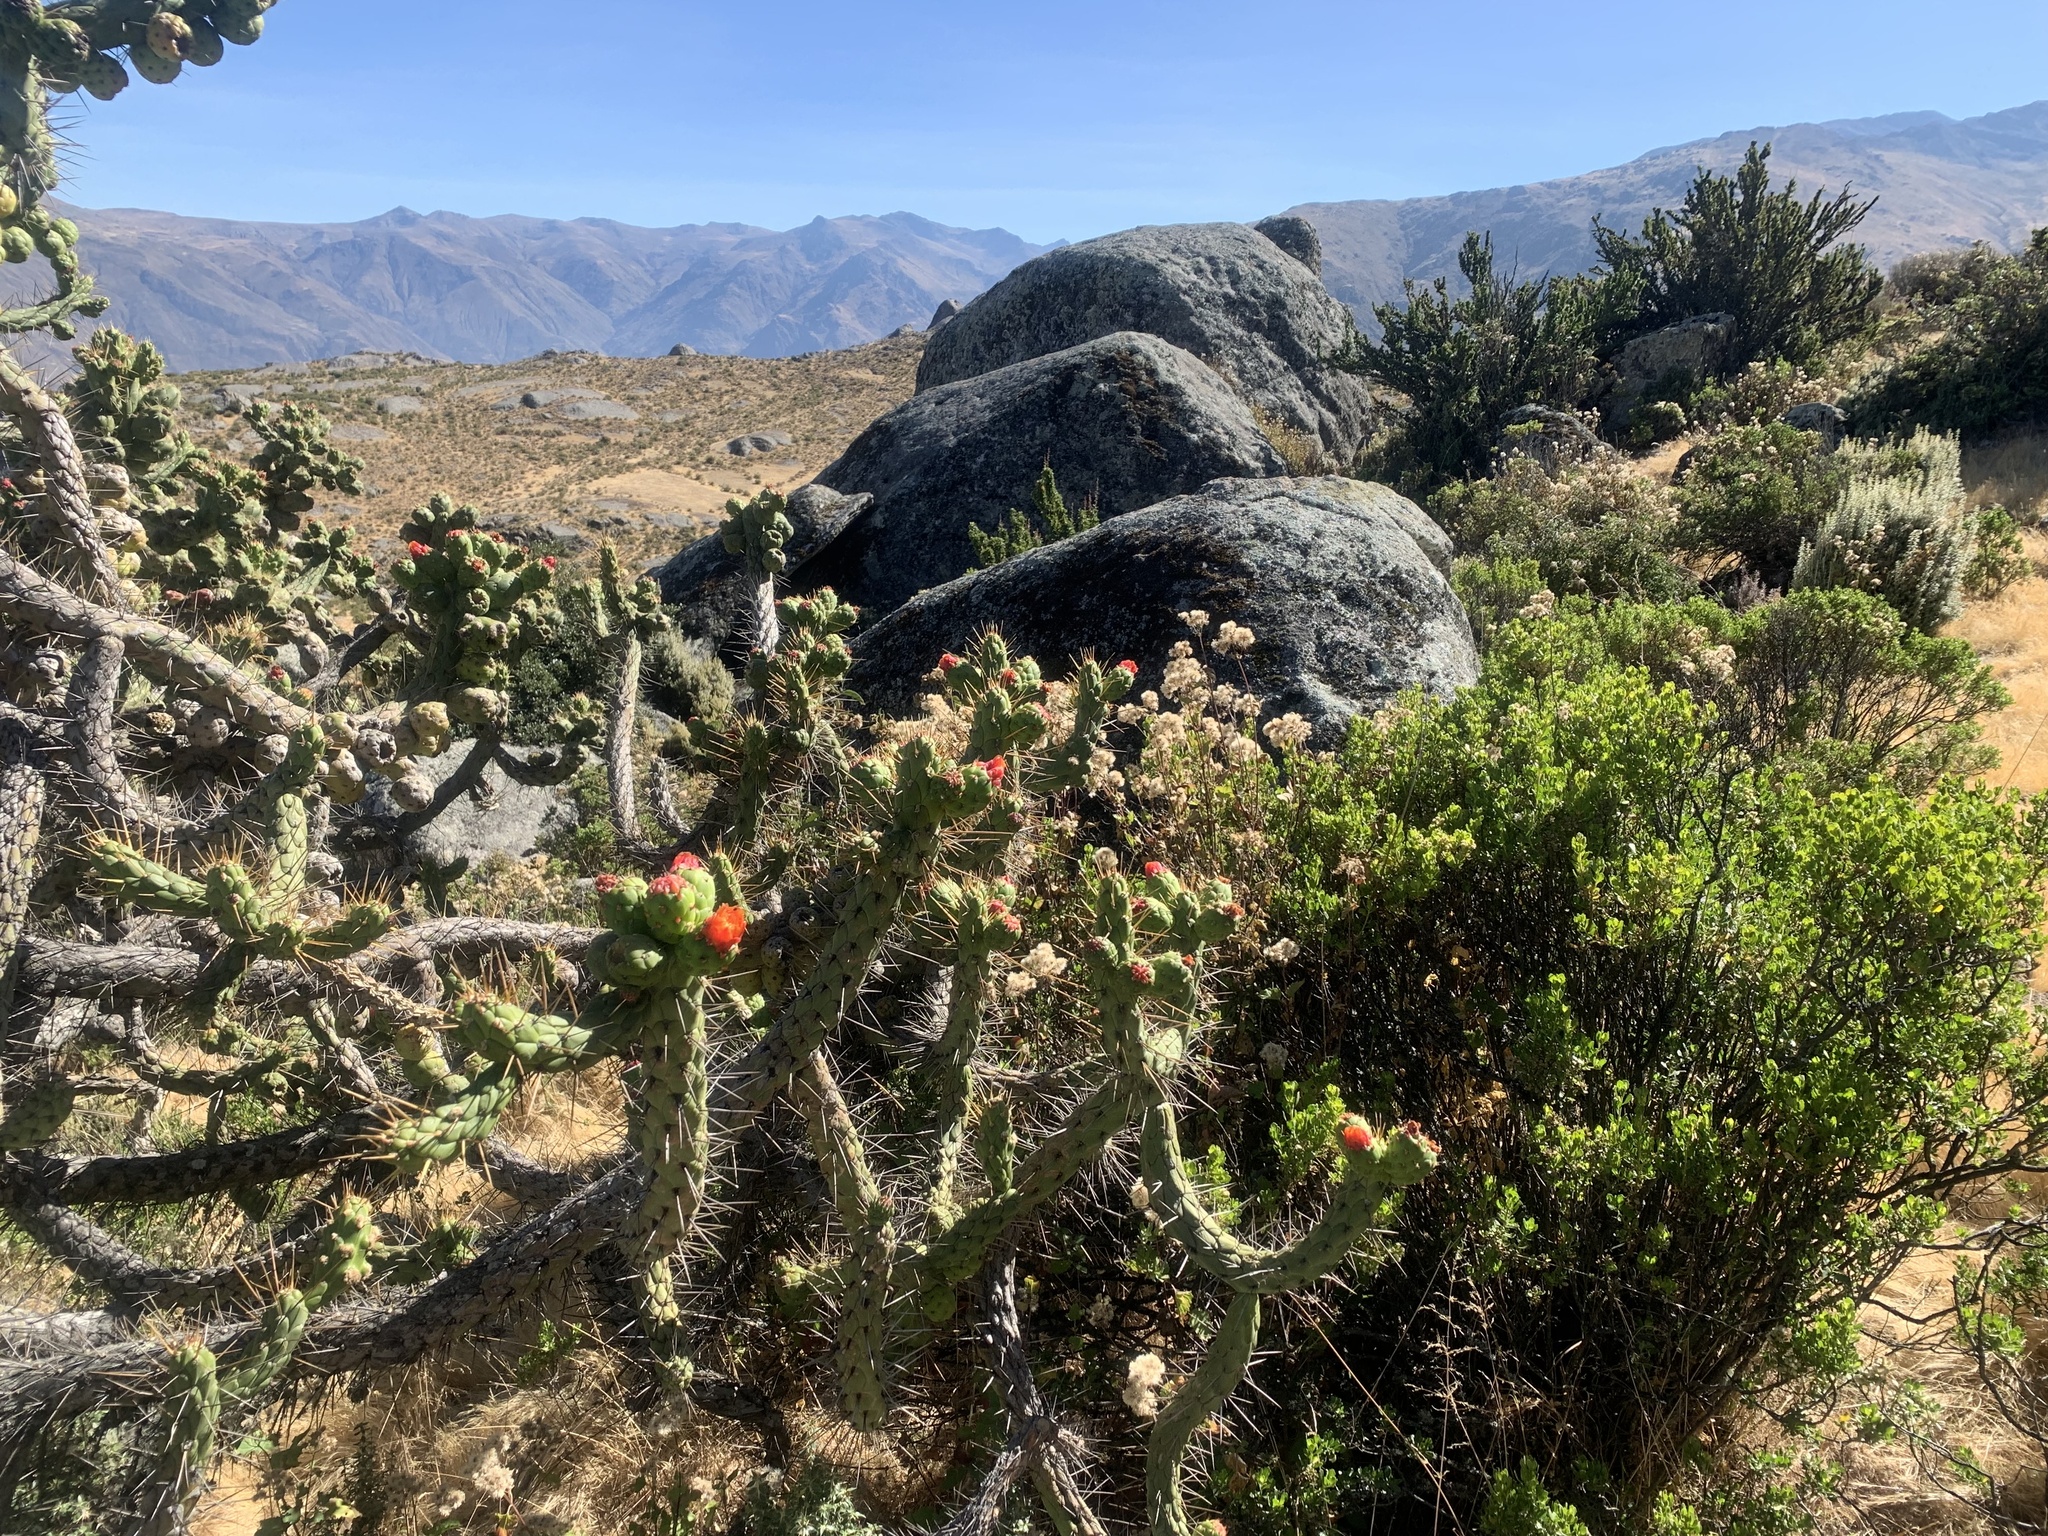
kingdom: Plantae
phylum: Tracheophyta
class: Magnoliopsida
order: Caryophyllales
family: Cactaceae
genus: Austrocylindropuntia
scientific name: Austrocylindropuntia subulata
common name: Eve's needle cactus
